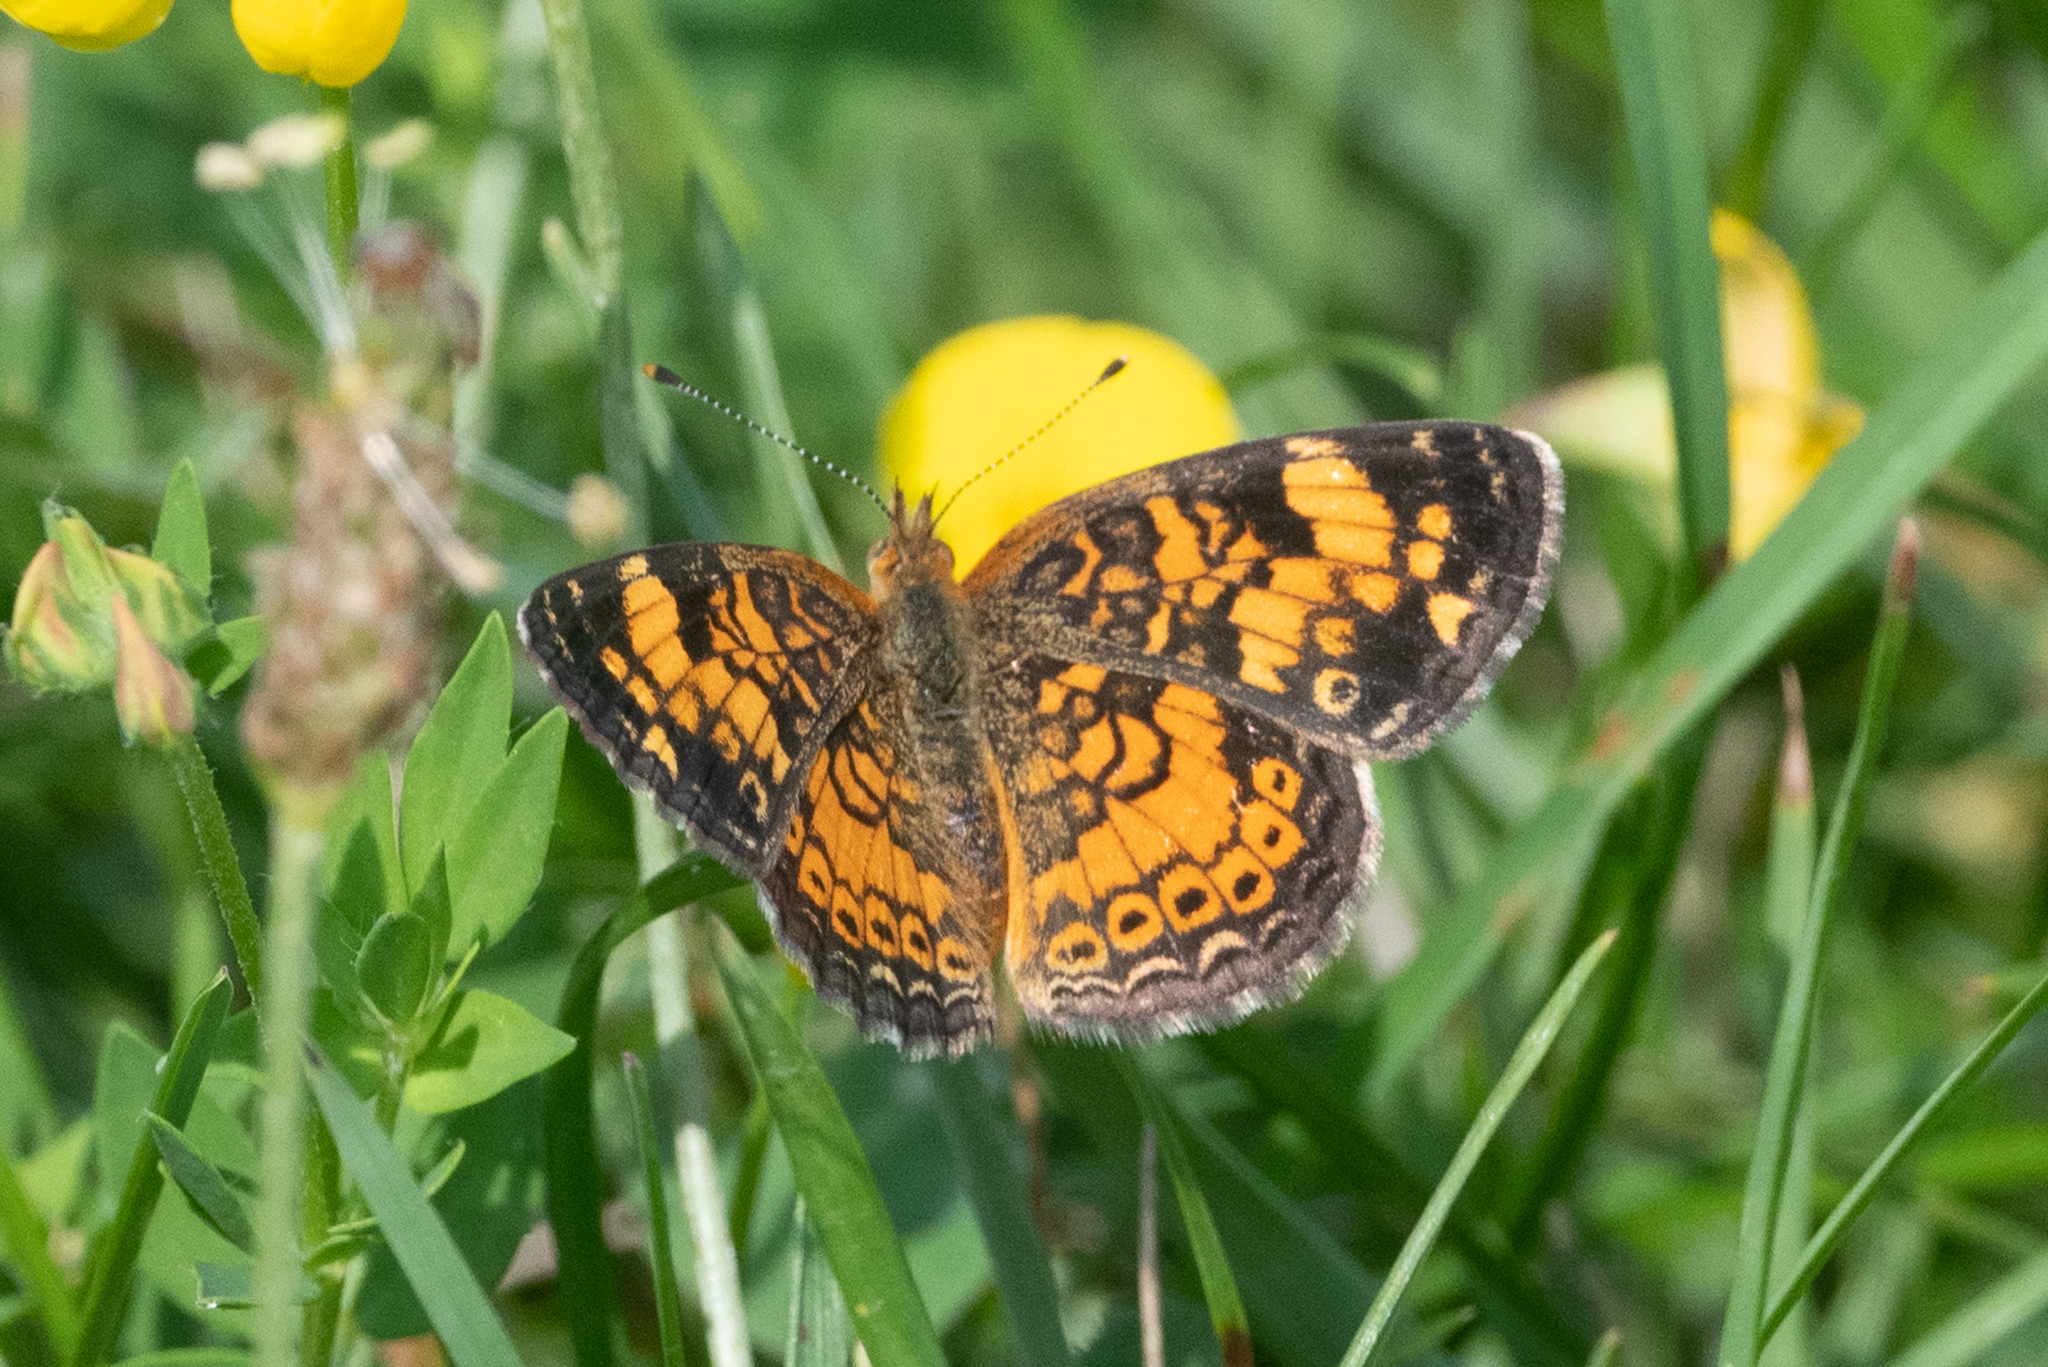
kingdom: Animalia
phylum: Arthropoda
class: Insecta
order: Lepidoptera
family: Nymphalidae
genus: Phyciodes
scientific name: Phyciodes tharos
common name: Pearl crescent
